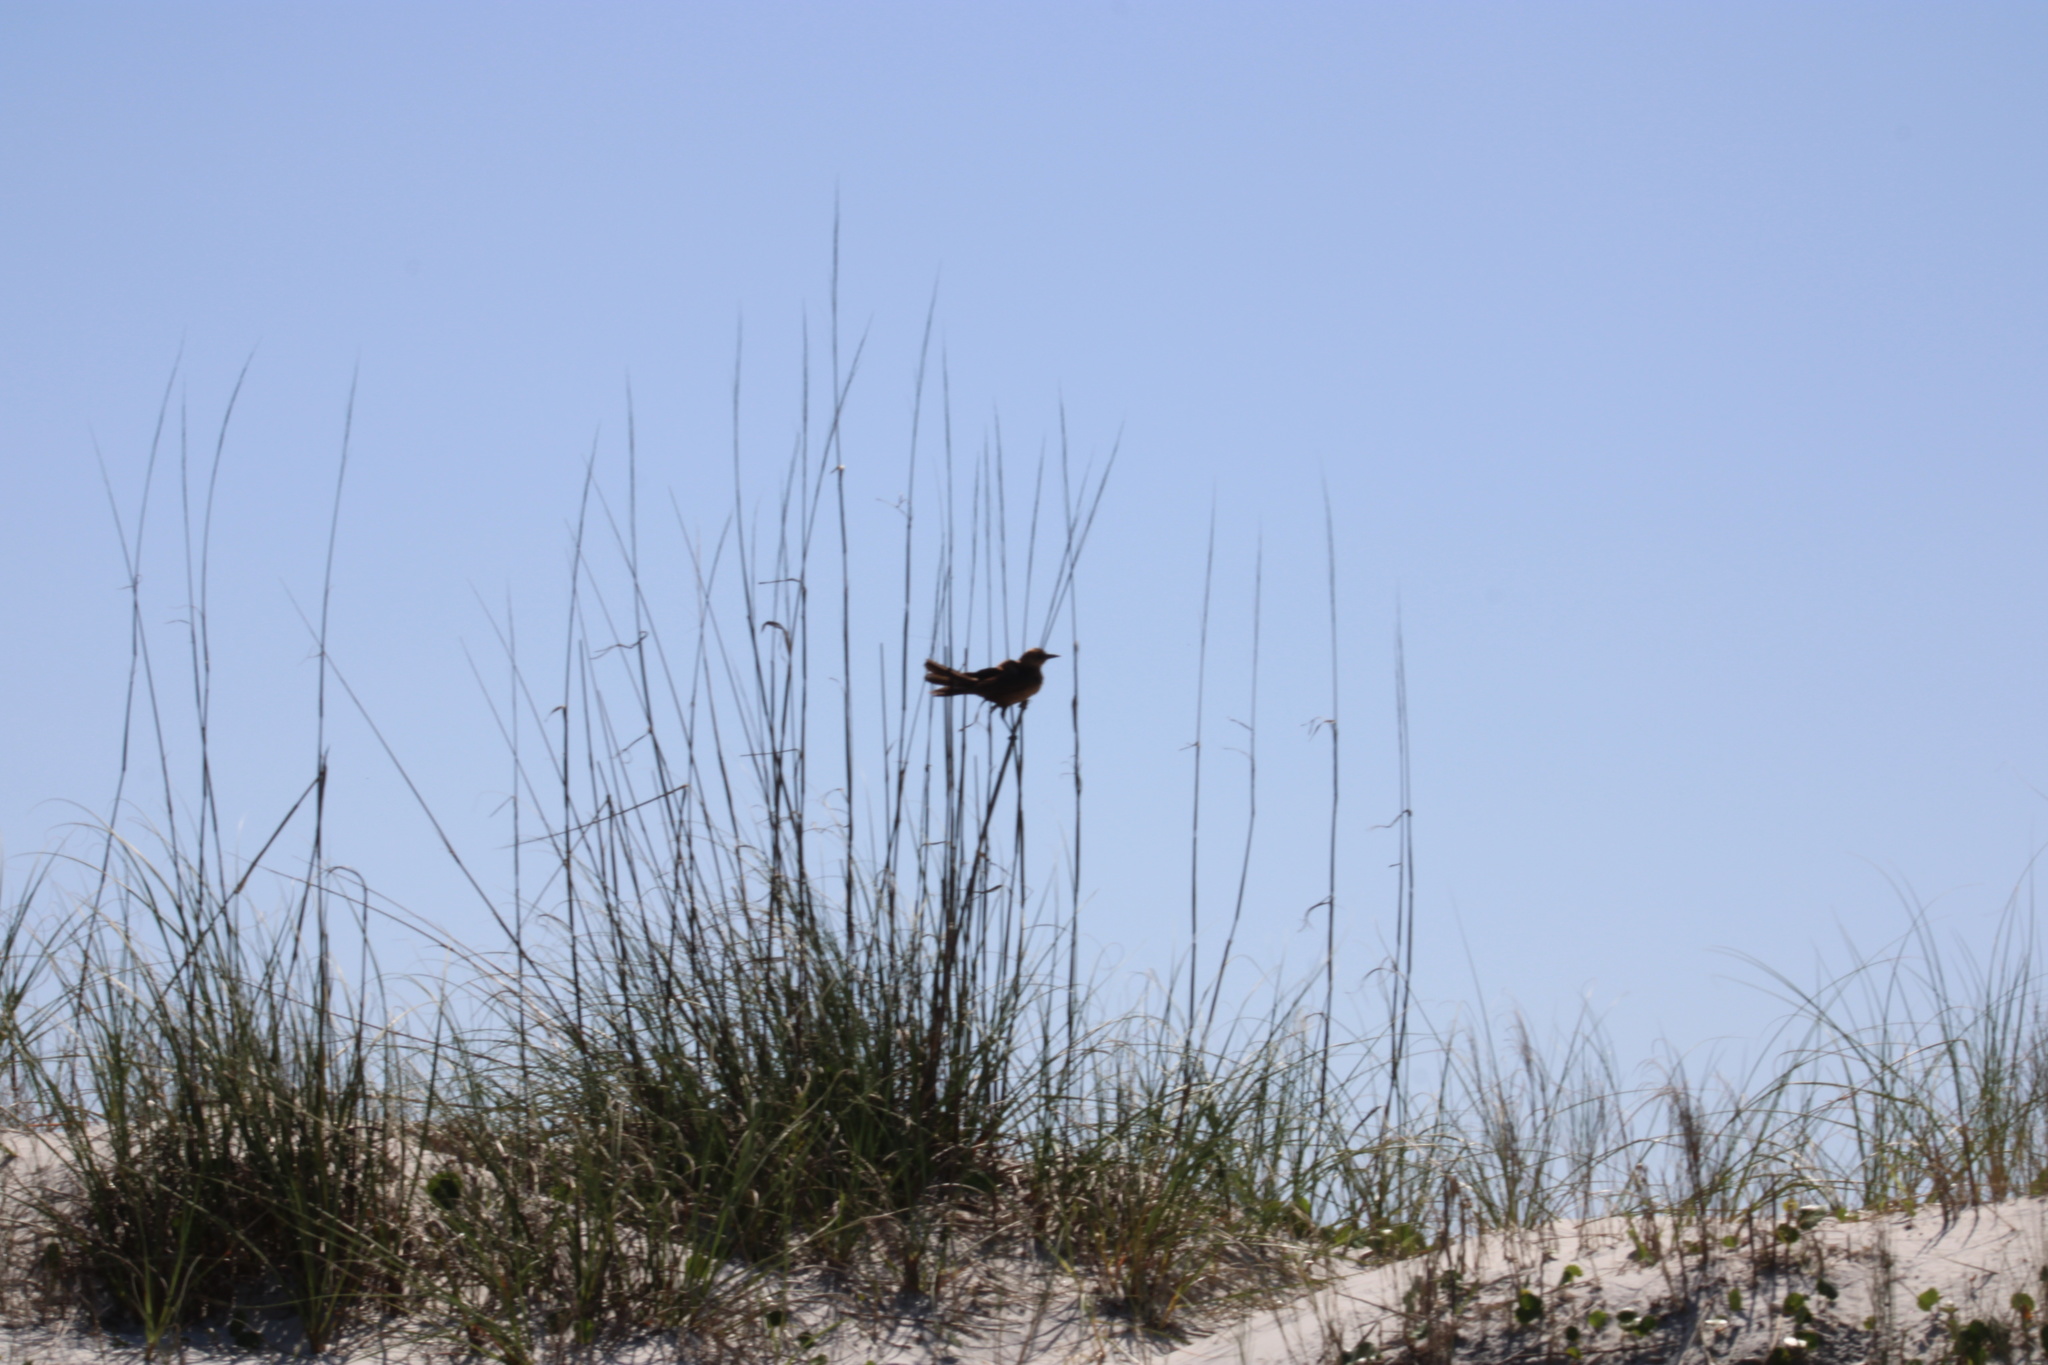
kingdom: Animalia
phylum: Chordata
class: Aves
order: Passeriformes
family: Icteridae
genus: Quiscalus
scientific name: Quiscalus major
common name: Boat-tailed grackle
